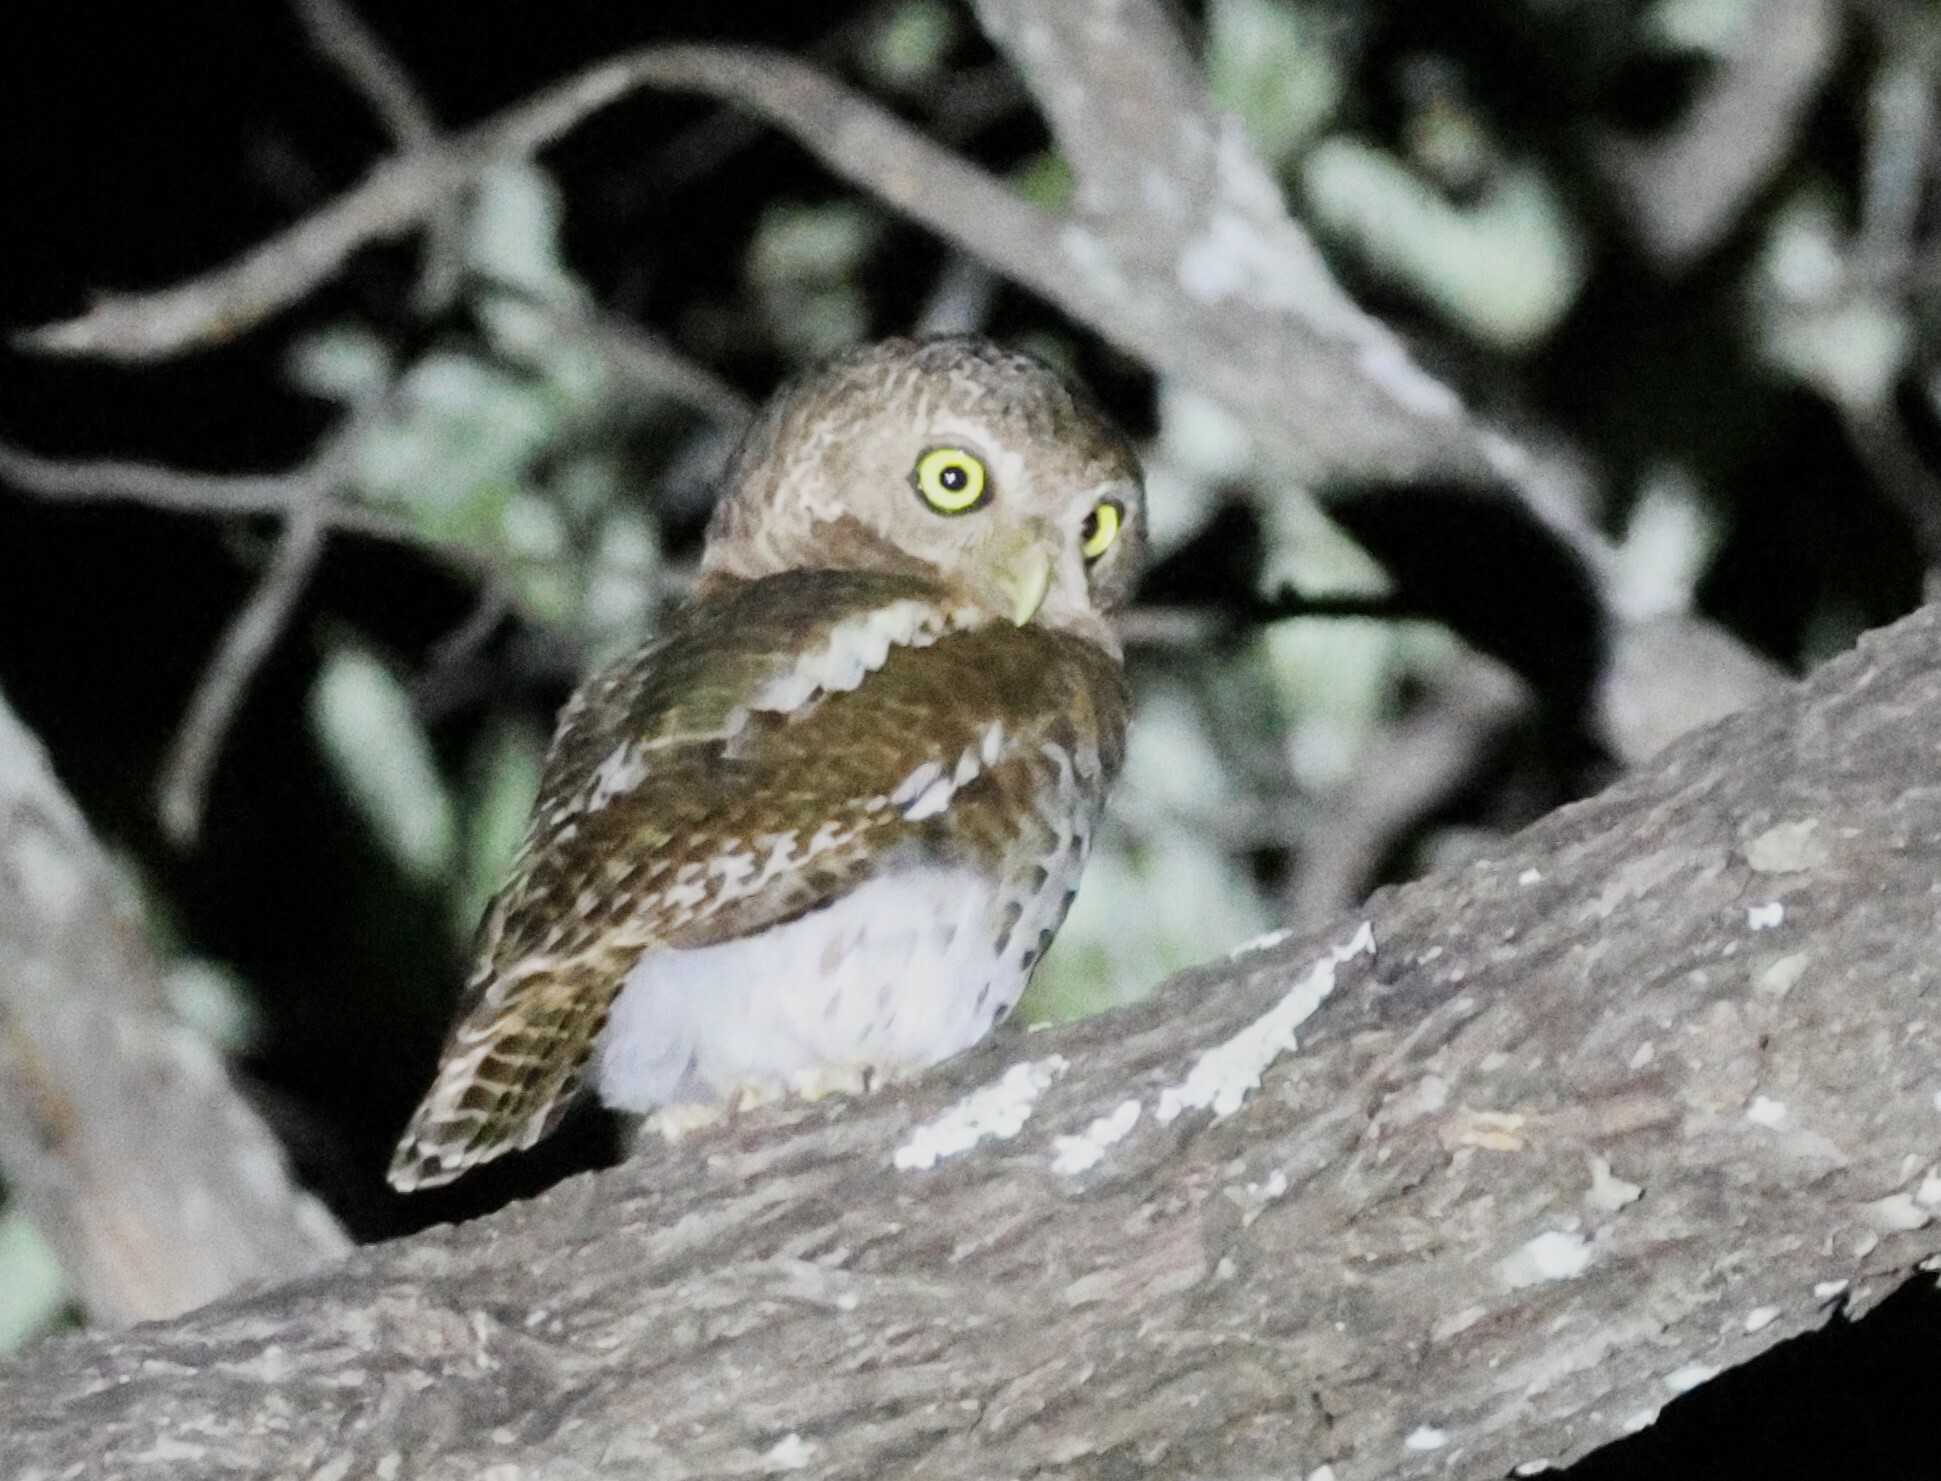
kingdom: Animalia
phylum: Chordata
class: Aves
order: Strigiformes
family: Strigidae
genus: Glaucidium
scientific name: Glaucidium capense
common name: African barred owlet
